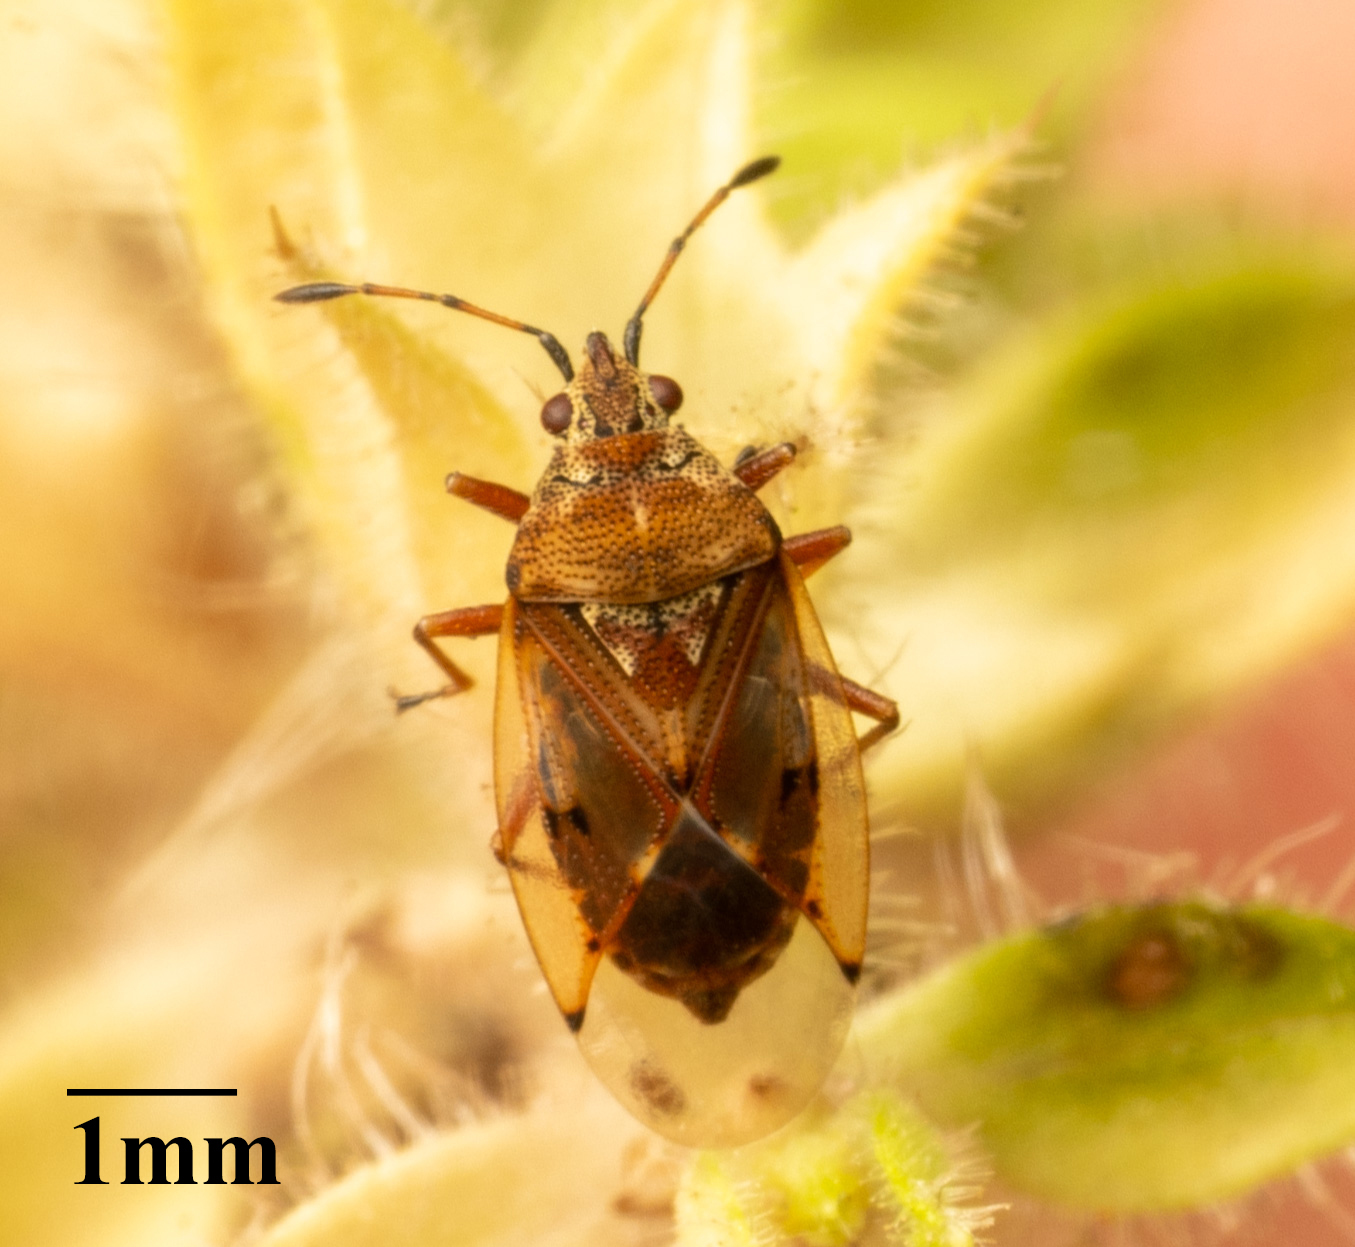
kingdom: Animalia
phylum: Arthropoda
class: Insecta
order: Hemiptera
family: Lygaeidae
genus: Kleidocerys
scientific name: Kleidocerys resedae
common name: Birch catkin bug
